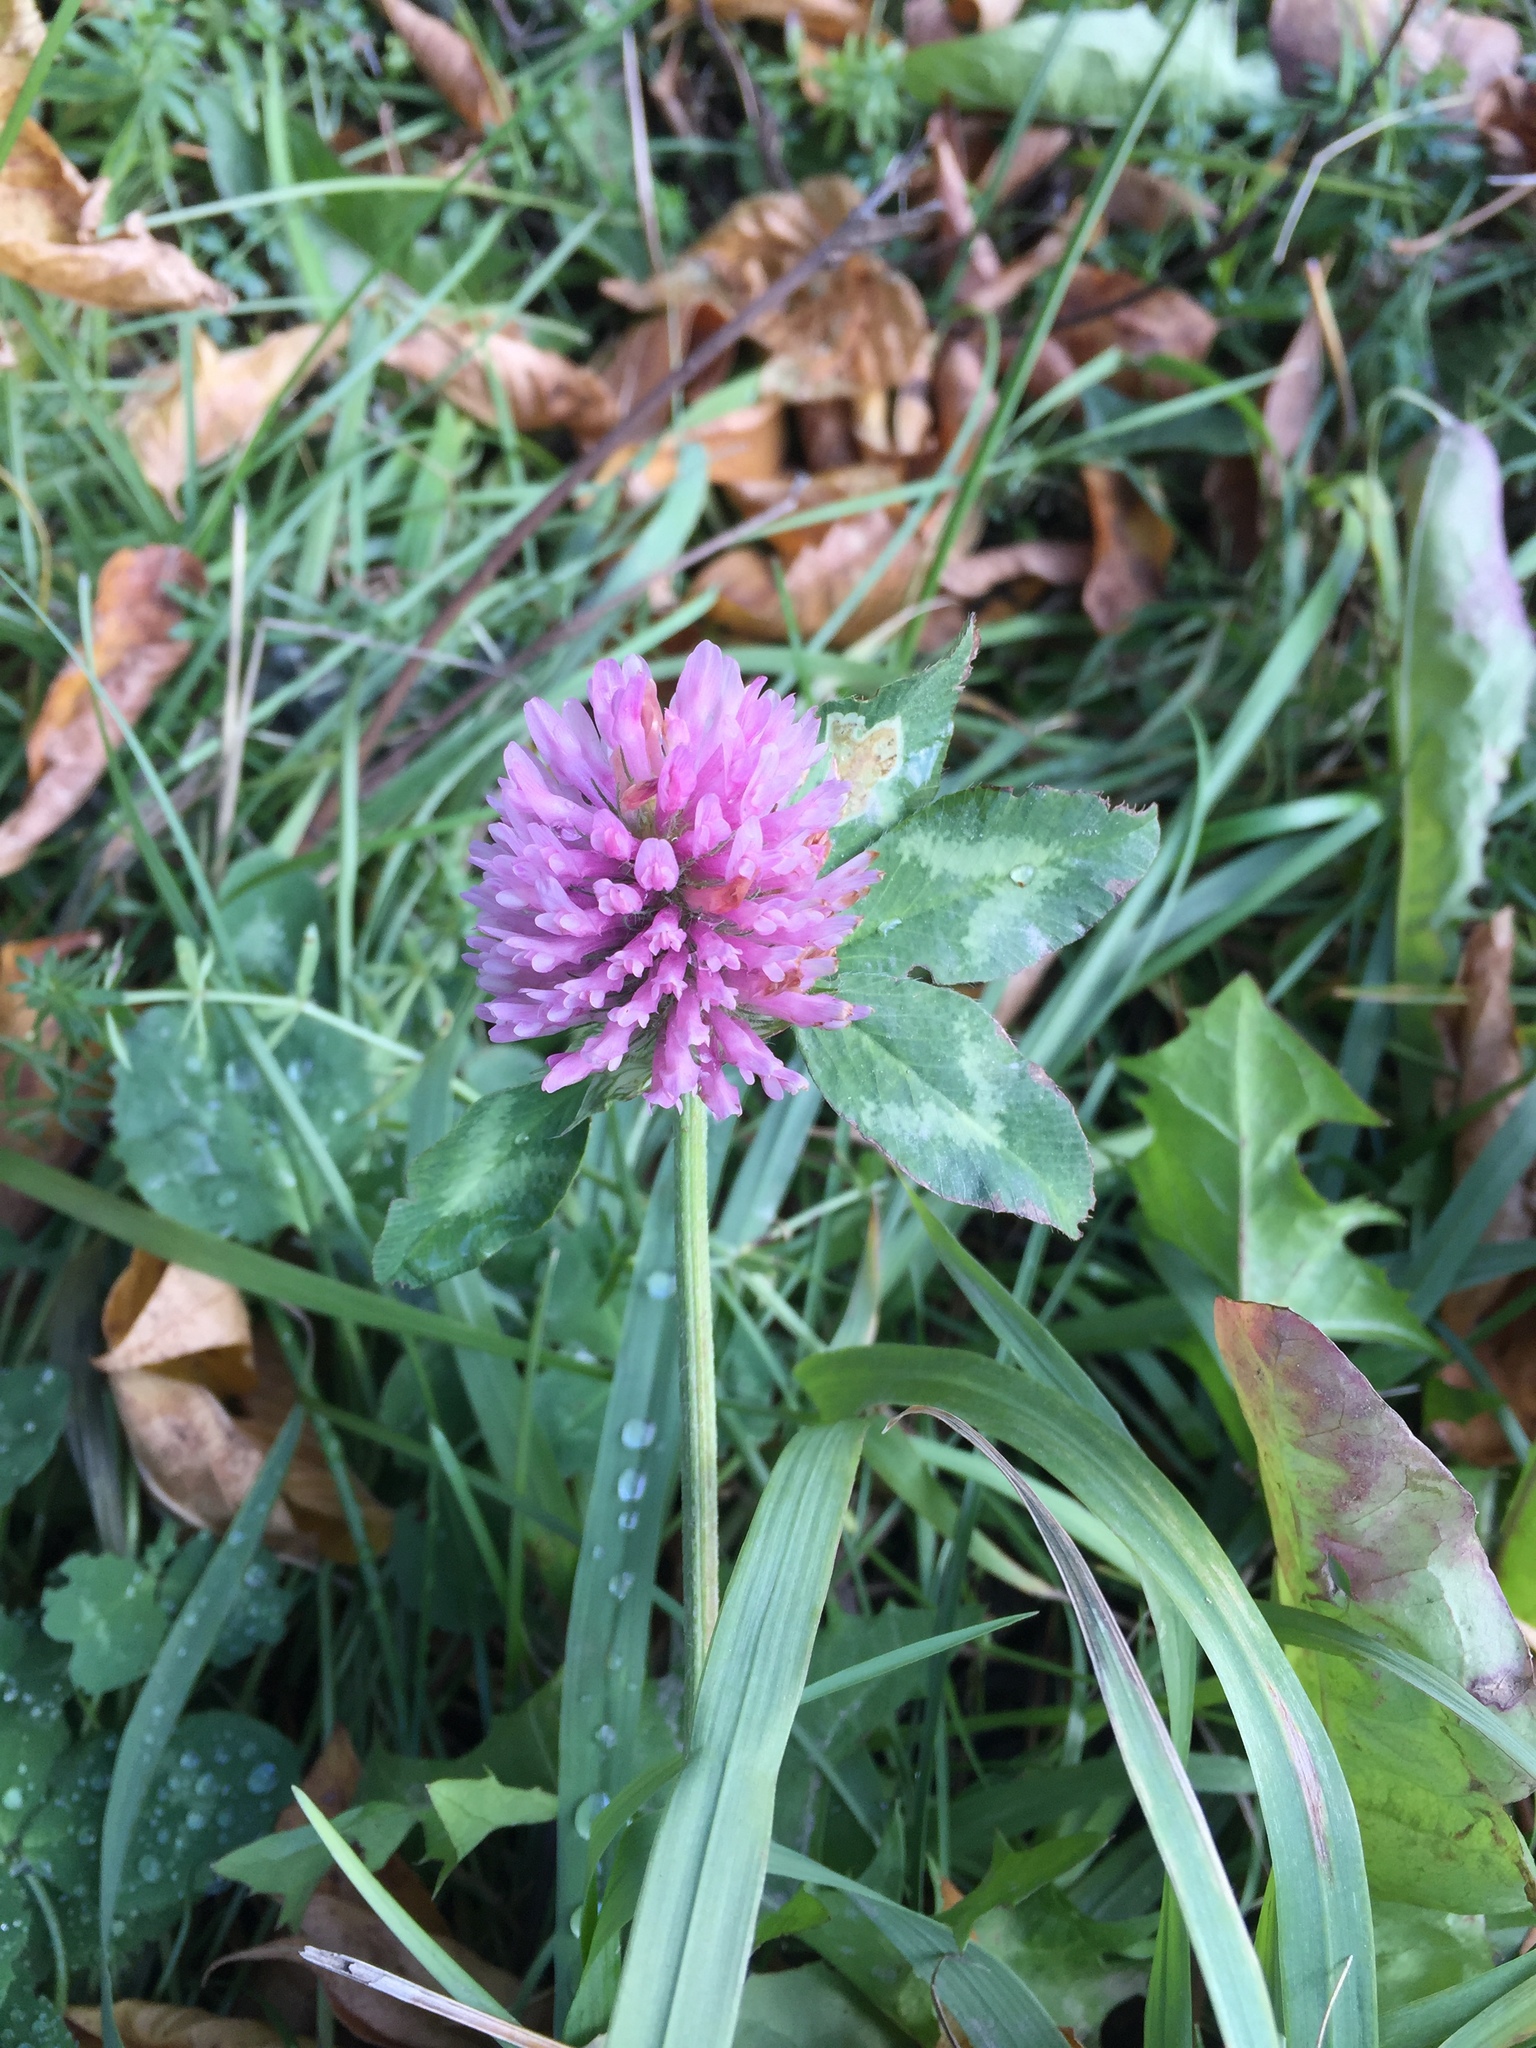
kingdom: Plantae
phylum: Tracheophyta
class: Magnoliopsida
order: Fabales
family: Fabaceae
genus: Trifolium
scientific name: Trifolium pratense
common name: Red clover
